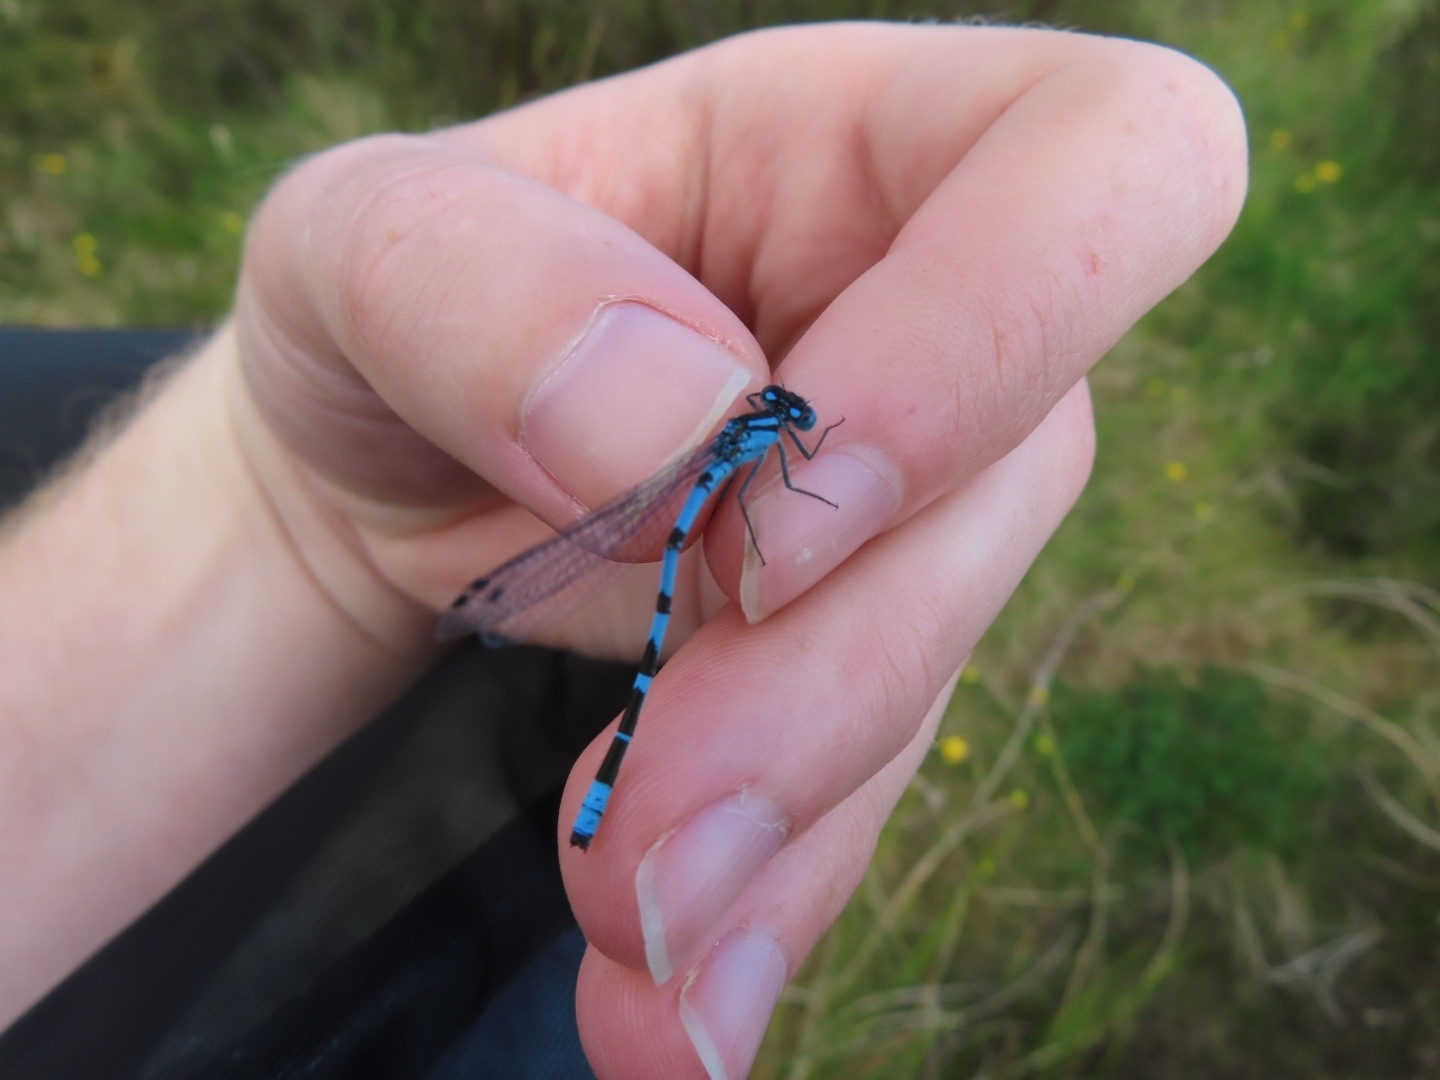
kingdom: Animalia
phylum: Arthropoda
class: Insecta
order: Odonata
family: Coenagrionidae
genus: Enallagma
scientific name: Enallagma cyathigerum
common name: Common blue damselfly
